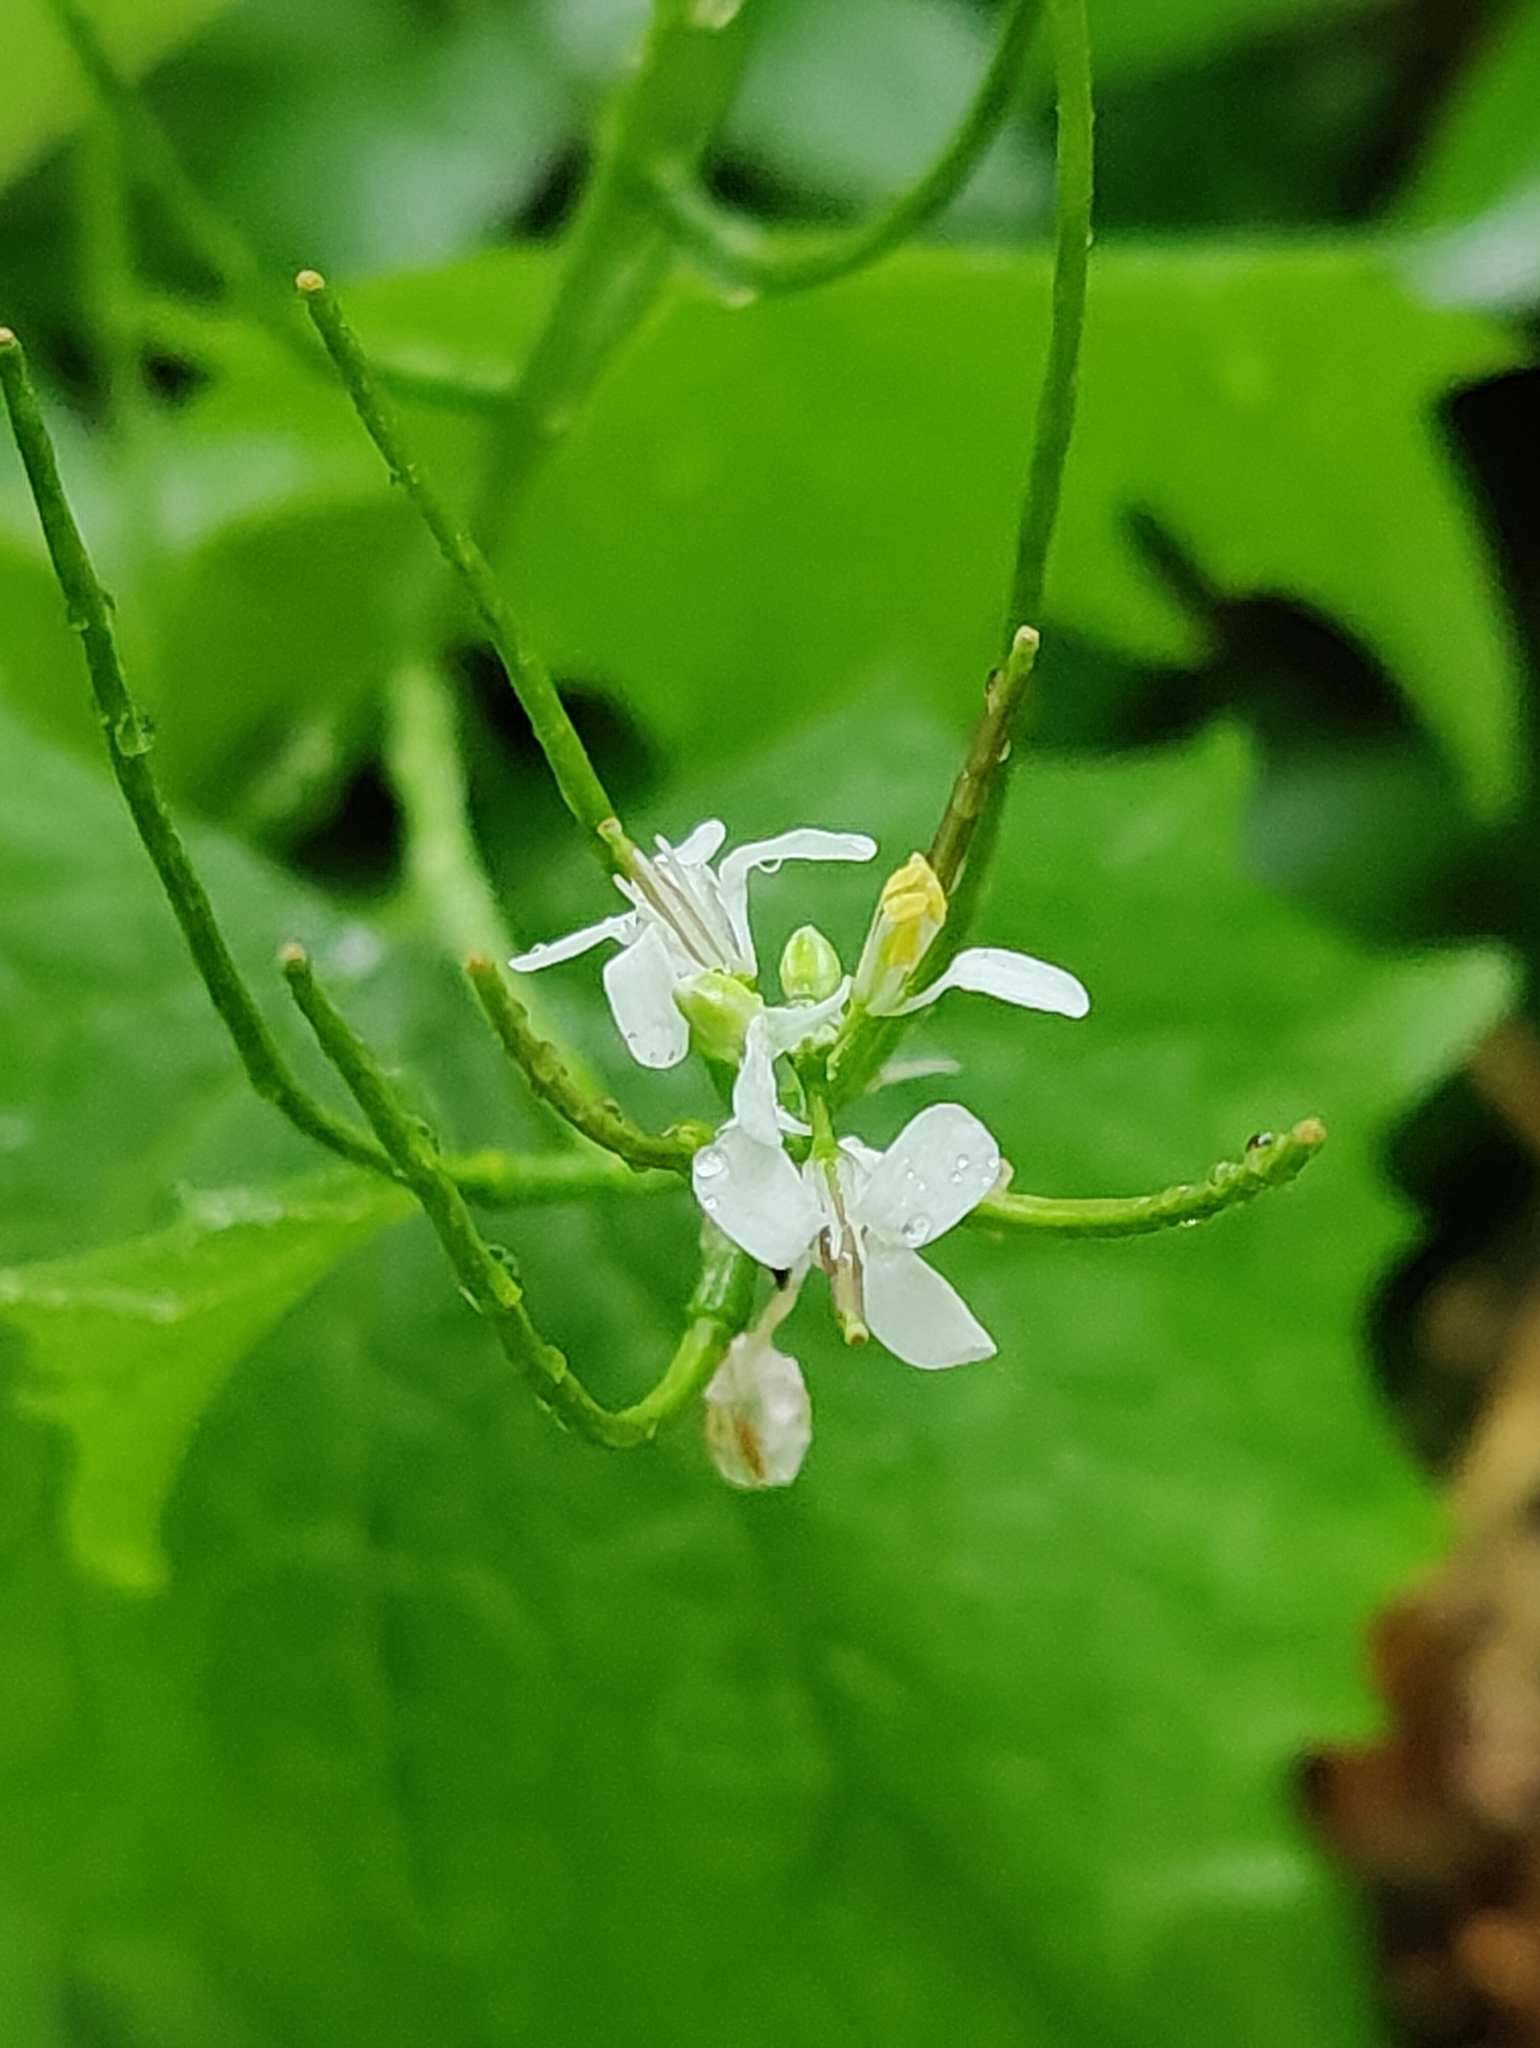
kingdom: Plantae
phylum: Tracheophyta
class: Magnoliopsida
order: Brassicales
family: Brassicaceae
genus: Alliaria
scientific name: Alliaria petiolata
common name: Garlic mustard
